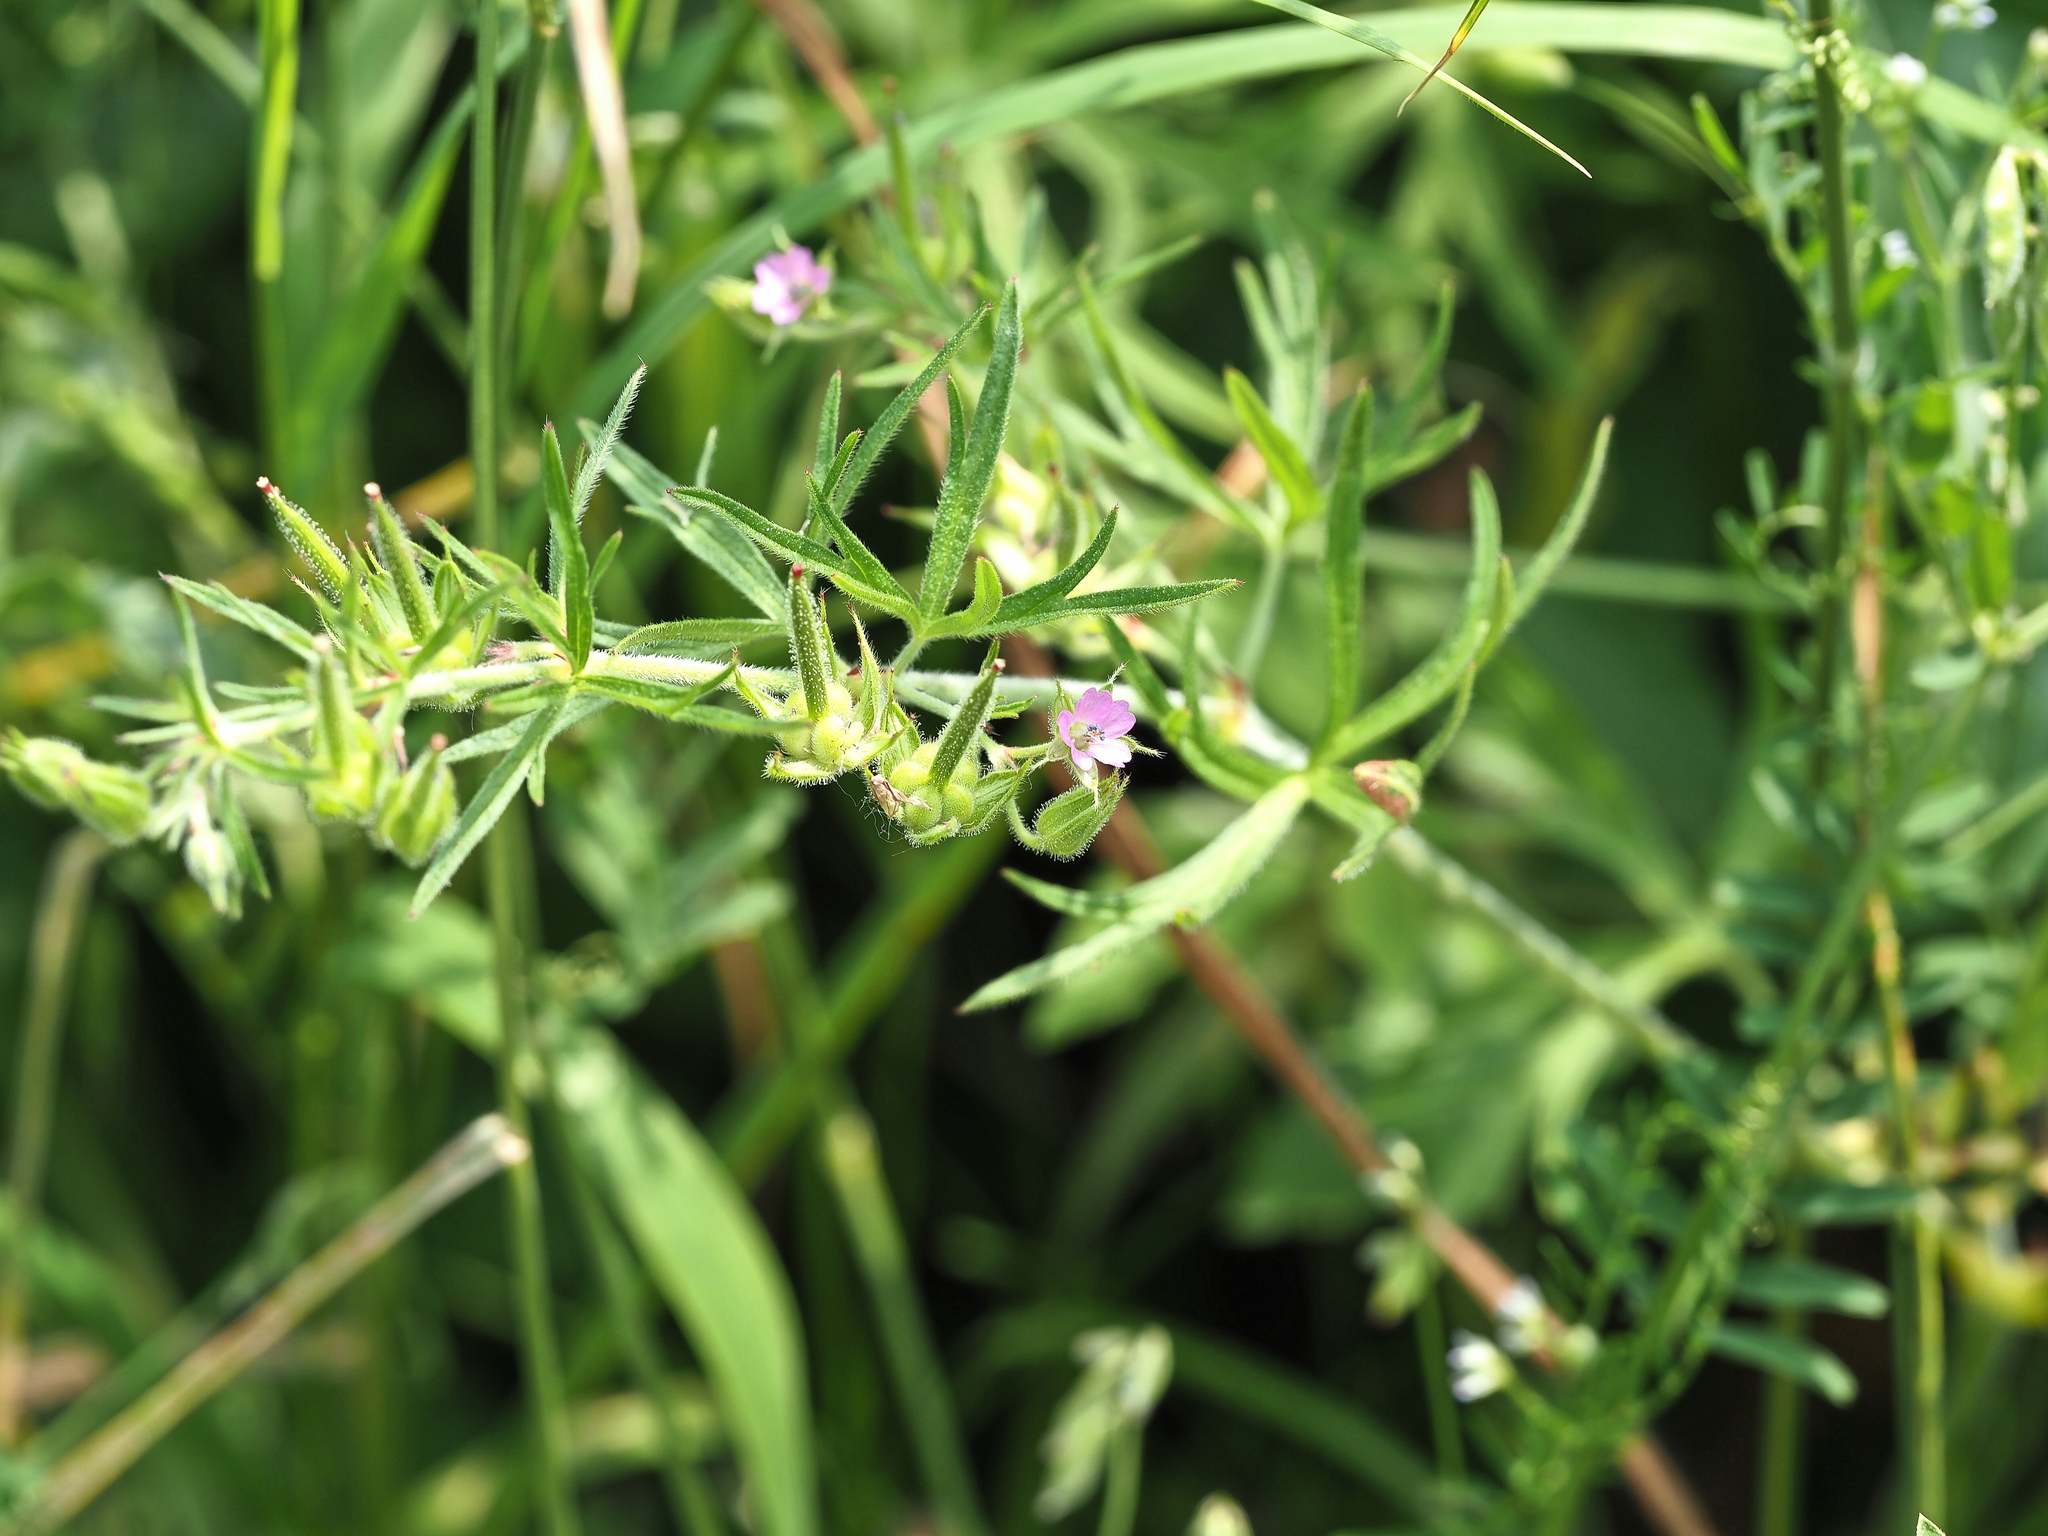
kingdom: Plantae
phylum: Tracheophyta
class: Magnoliopsida
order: Geraniales
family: Geraniaceae
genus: Geranium
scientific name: Geranium dissectum
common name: Cut-leaved crane's-bill
